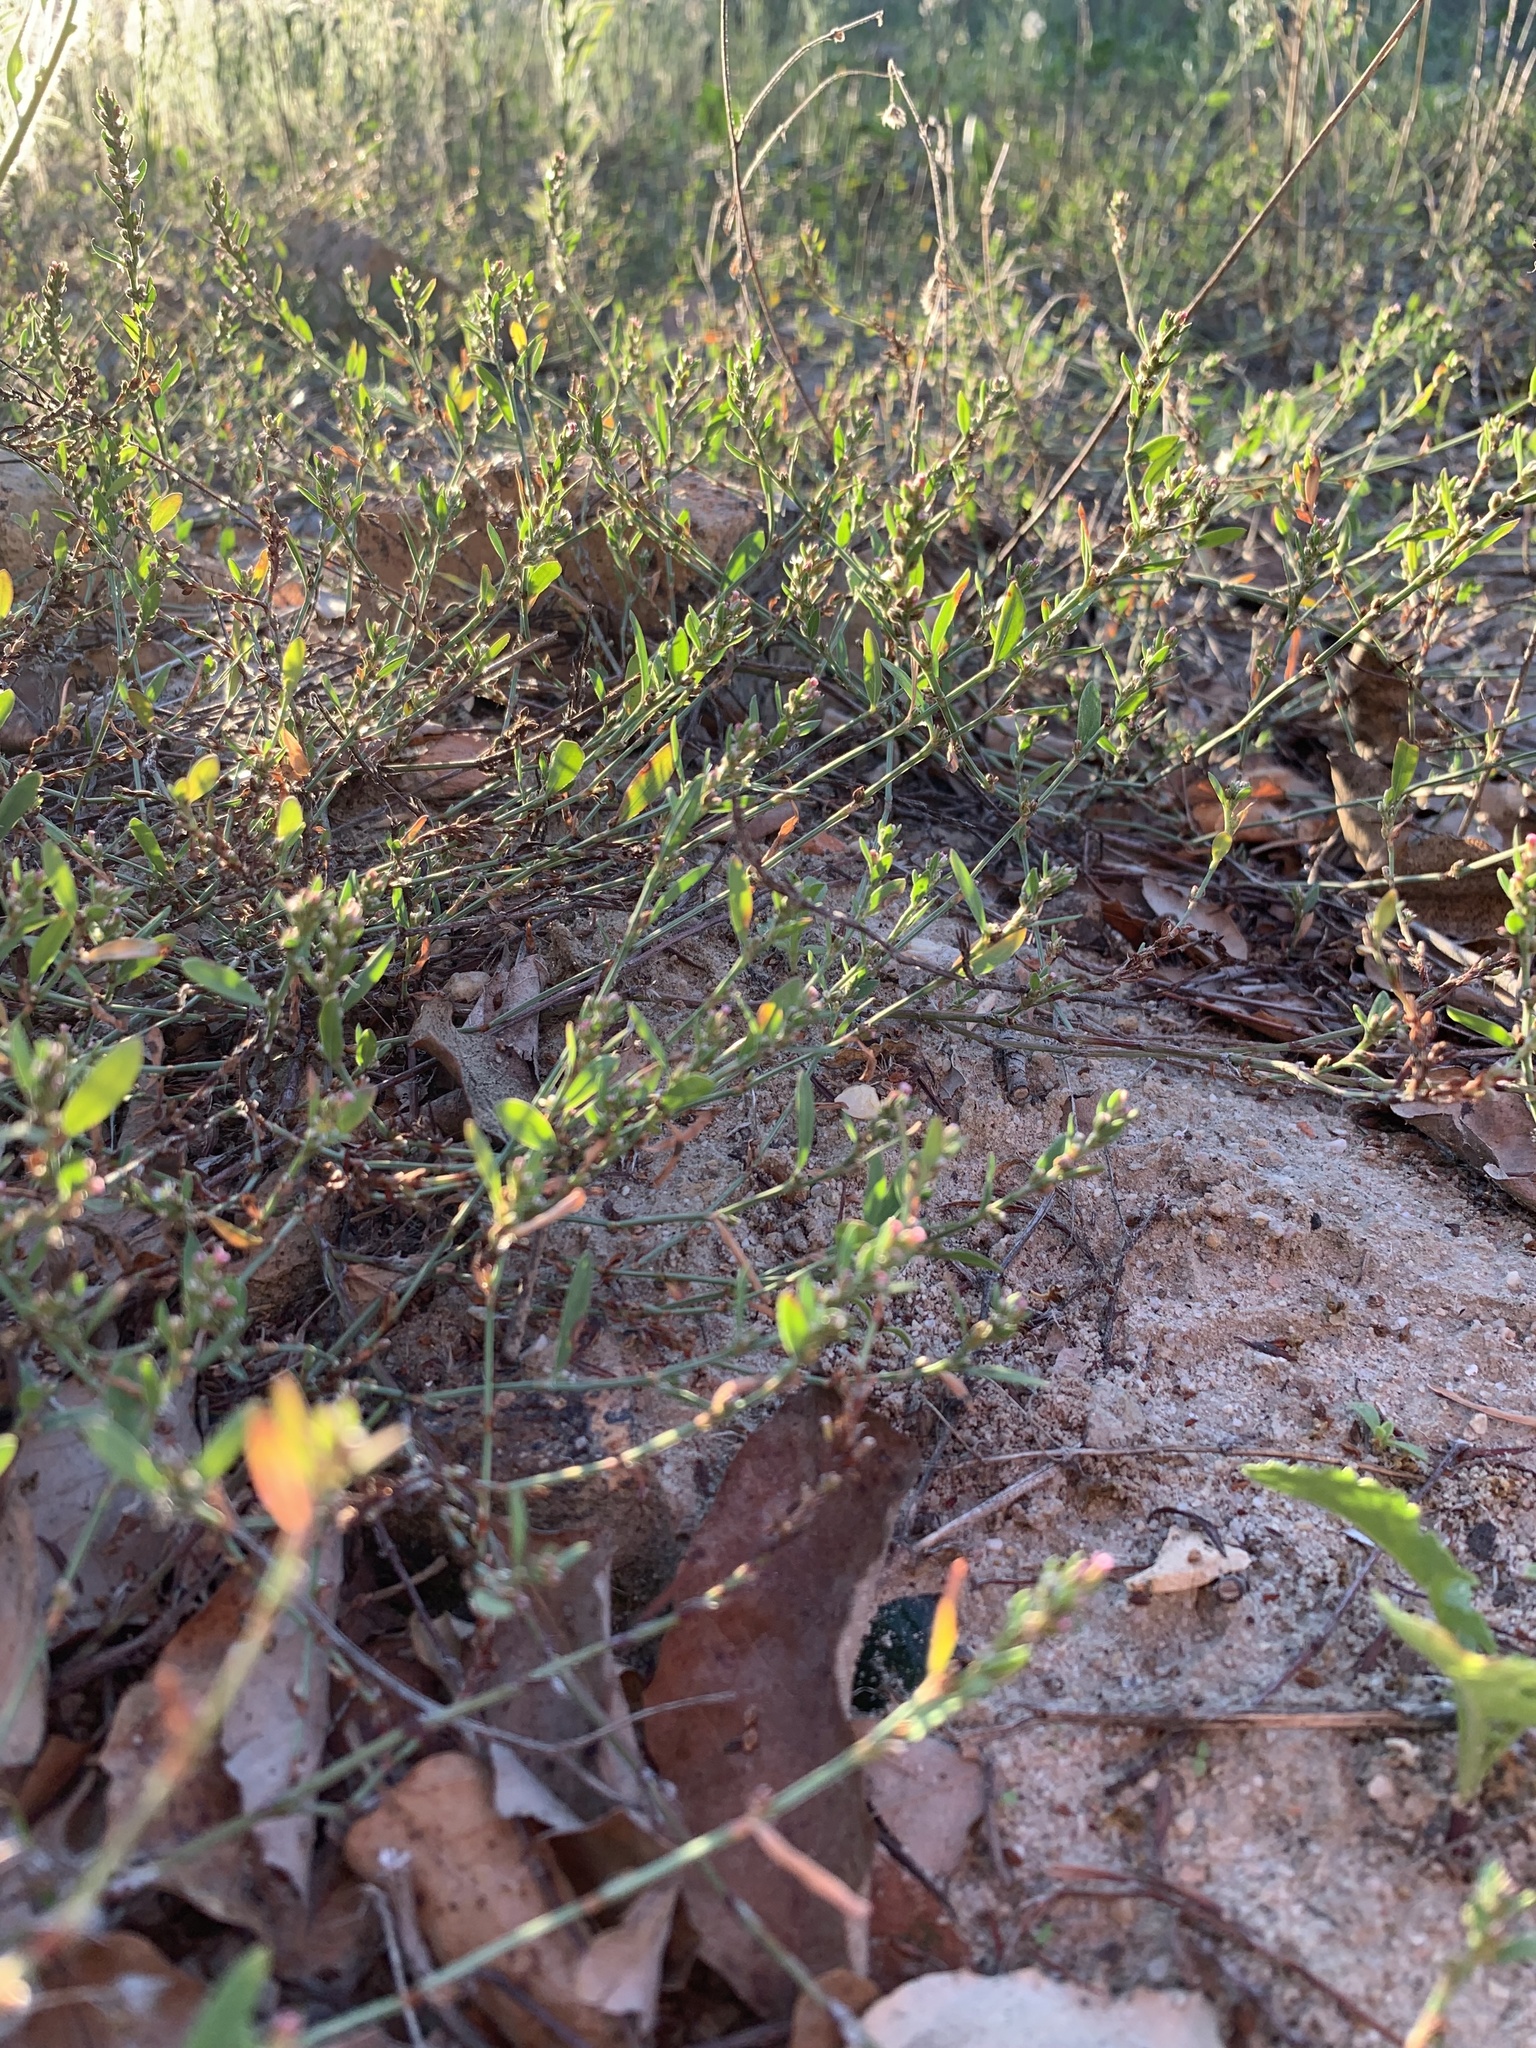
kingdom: Plantae
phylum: Tracheophyta
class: Magnoliopsida
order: Caryophyllales
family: Polygonaceae
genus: Polygonum
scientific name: Polygonum aviculare
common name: Prostrate knotweed
